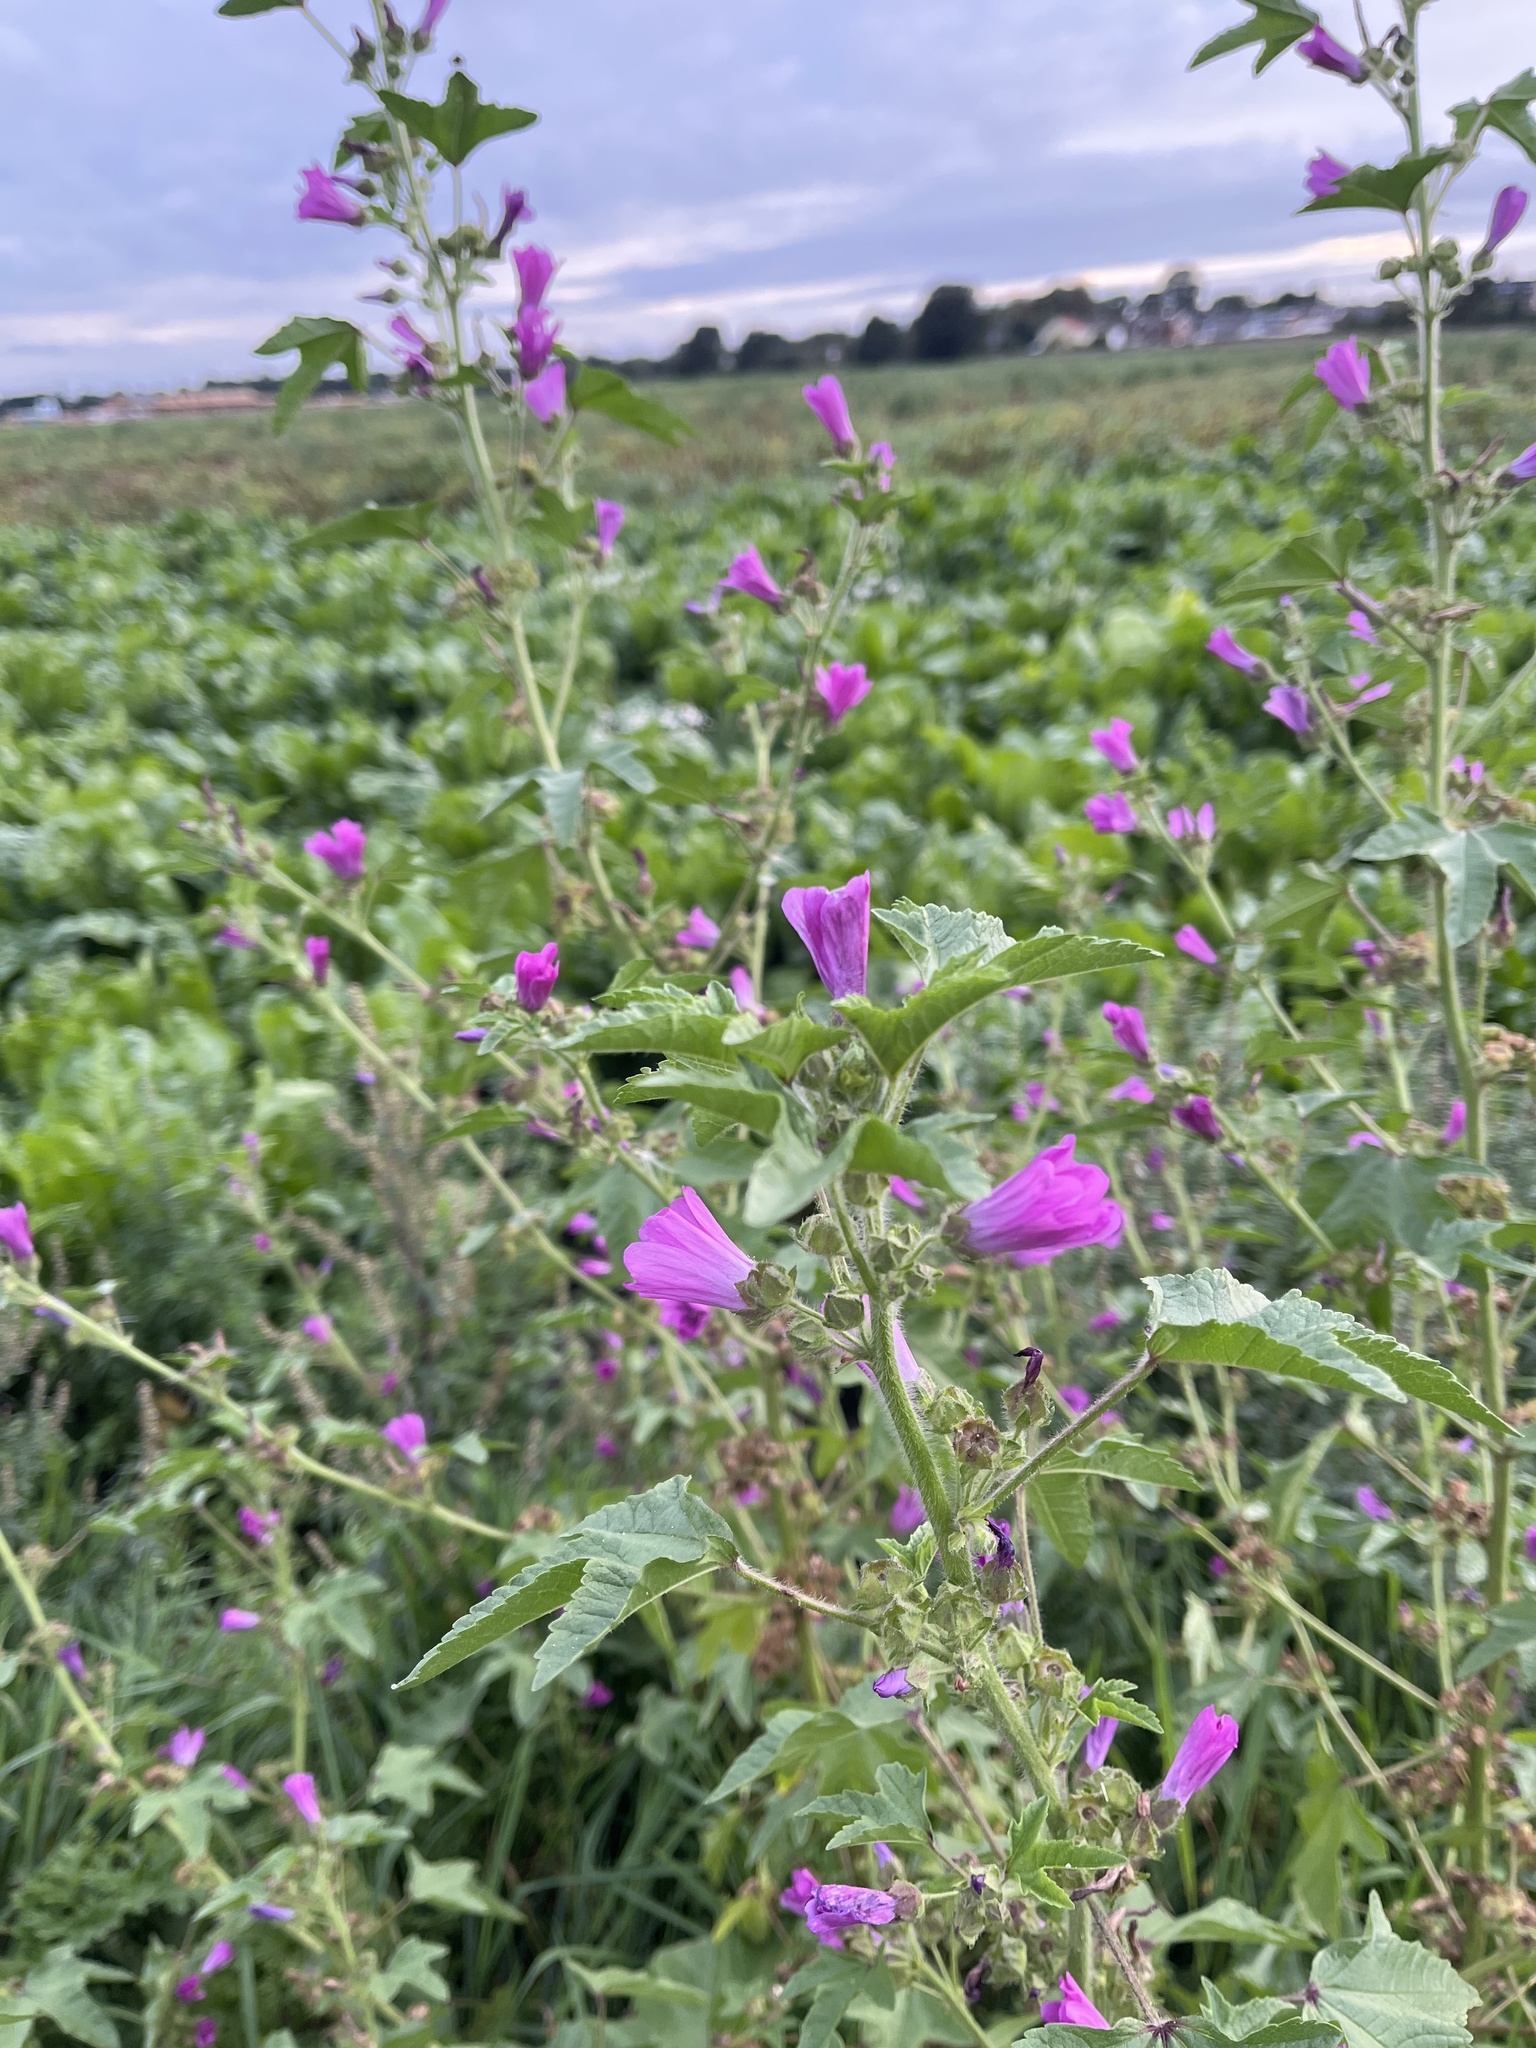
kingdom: Plantae
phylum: Tracheophyta
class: Magnoliopsida
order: Malvales
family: Malvaceae
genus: Malva
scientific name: Malva sylvestris
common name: Common mallow
